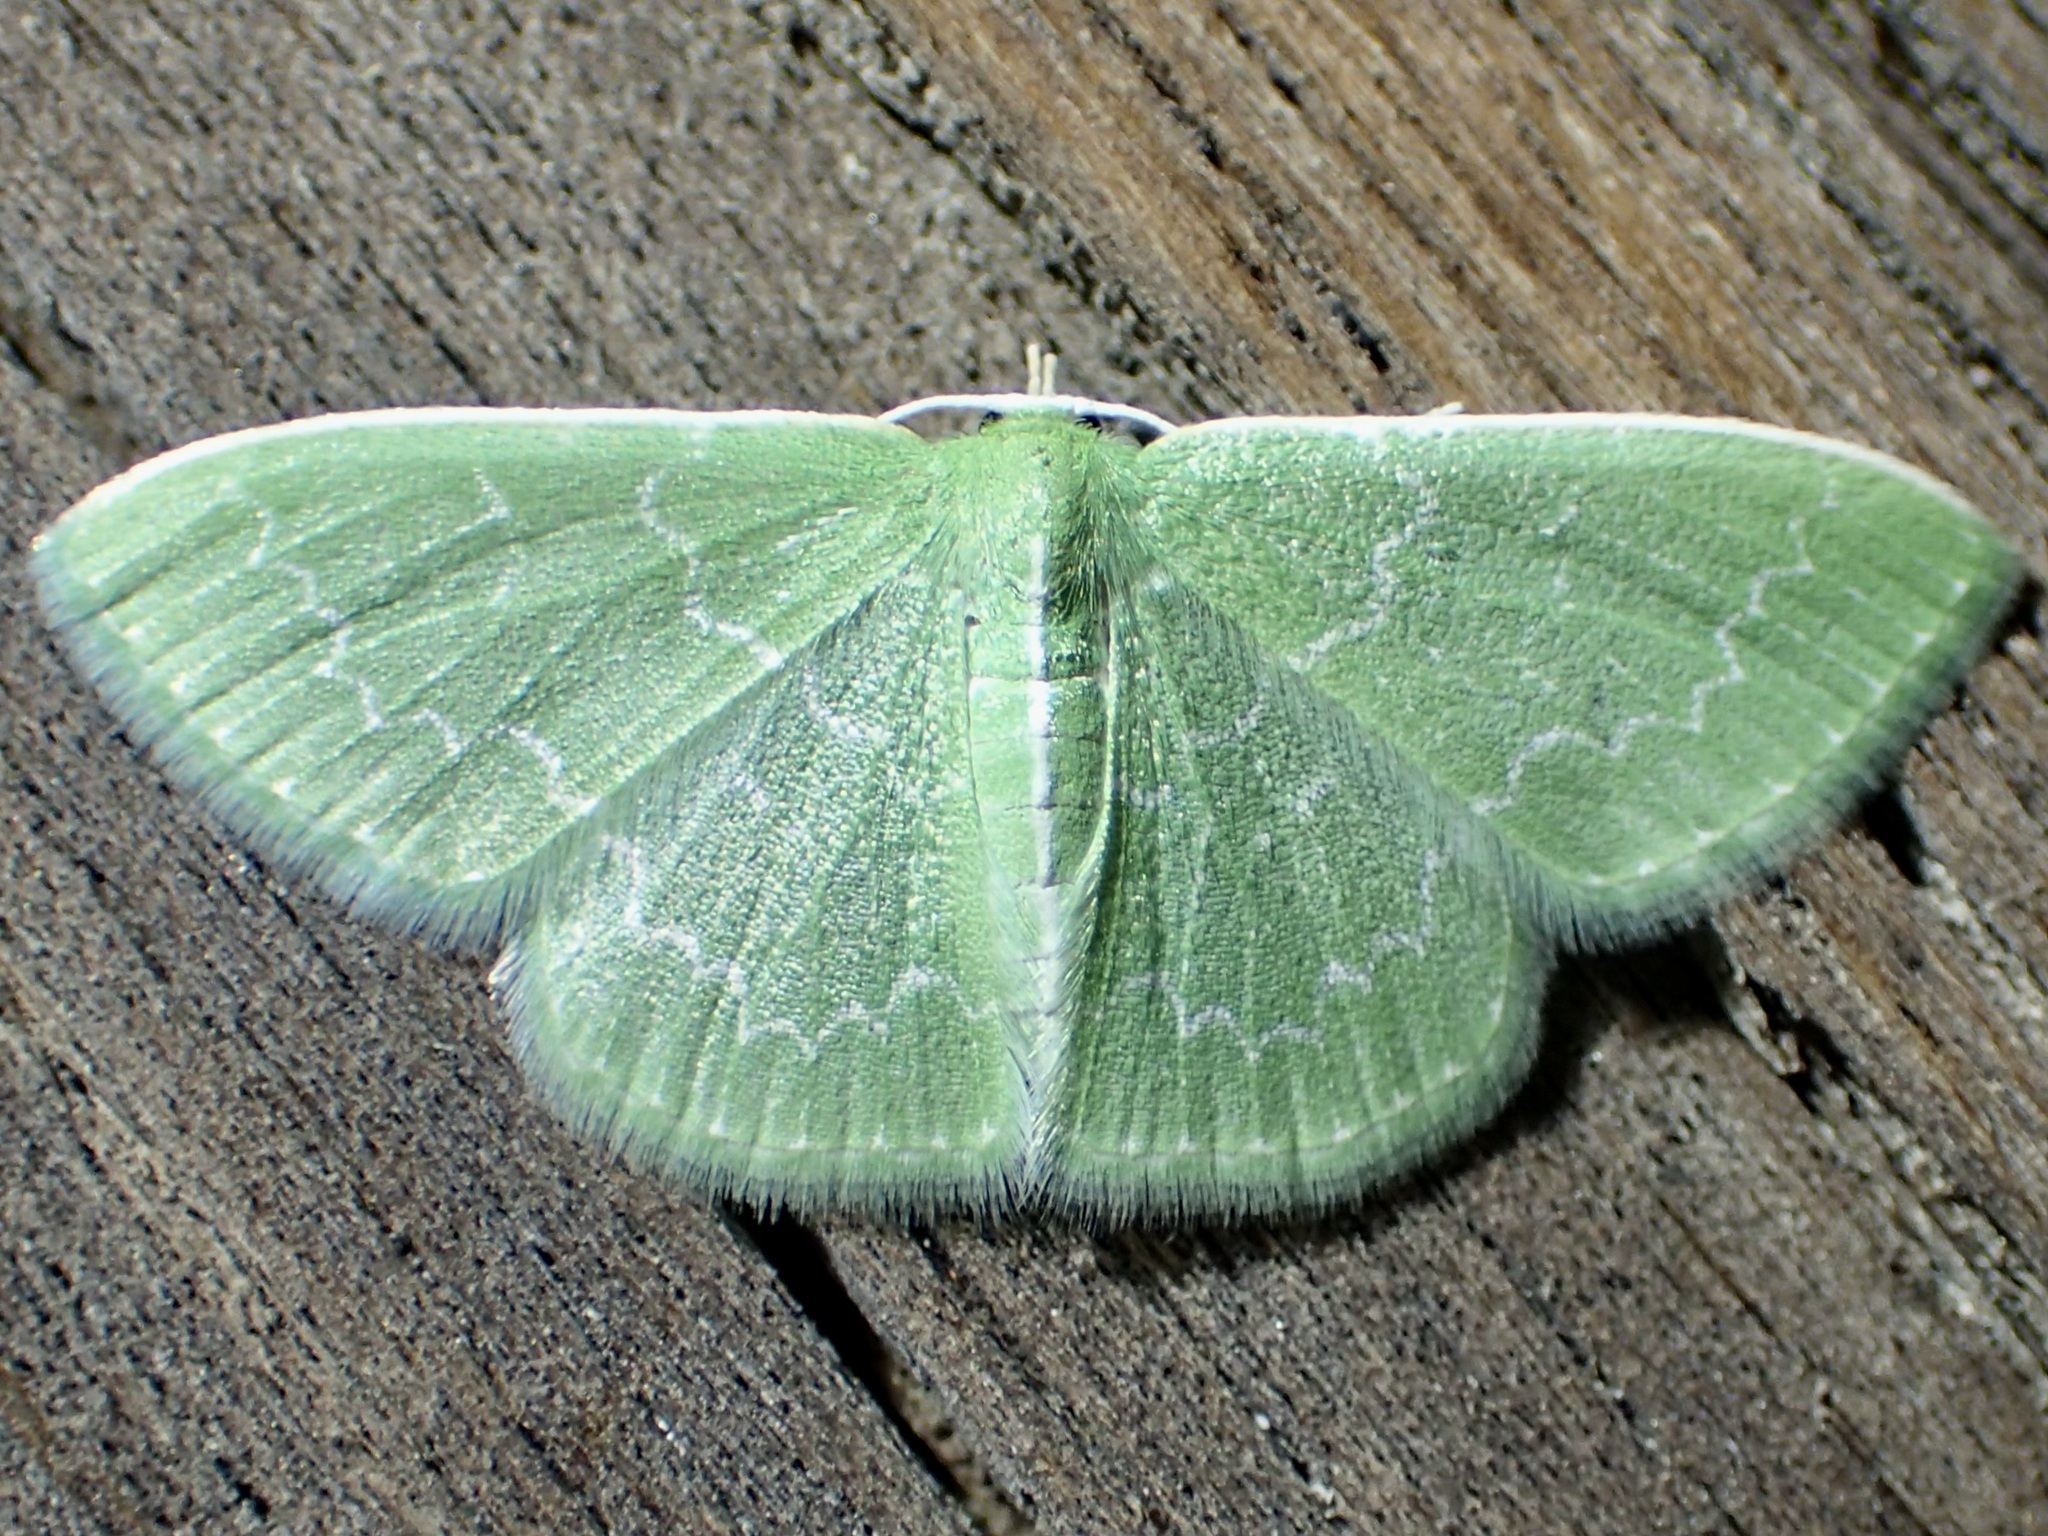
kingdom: Animalia
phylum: Arthropoda
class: Insecta
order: Lepidoptera
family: Geometridae
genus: Synchlora
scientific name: Synchlora frondaria
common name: Southern emerald
